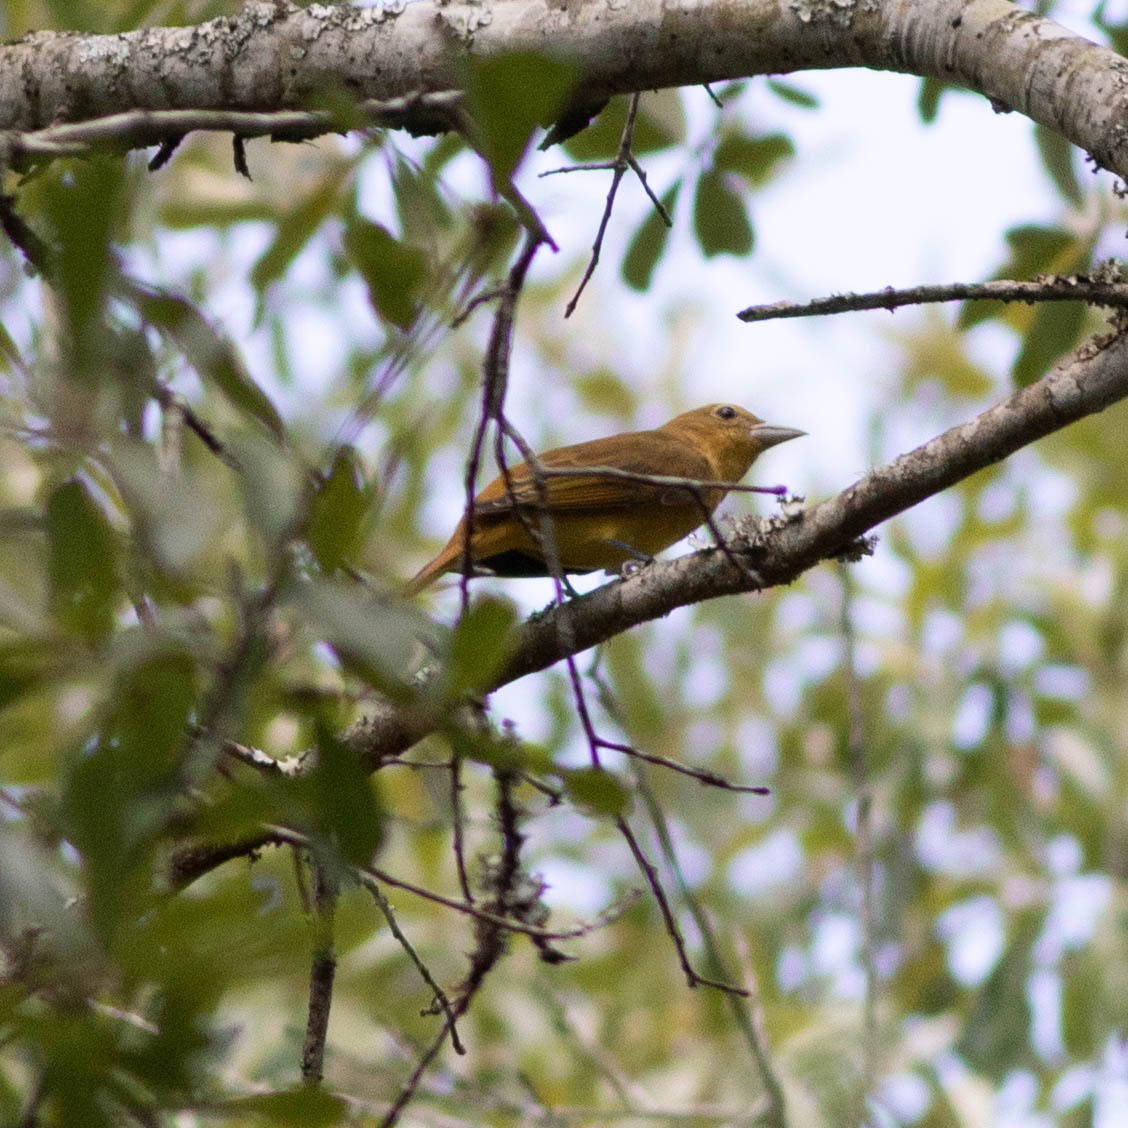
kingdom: Animalia
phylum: Chordata
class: Aves
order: Passeriformes
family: Cardinalidae
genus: Piranga
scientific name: Piranga rubra
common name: Summer tanager
